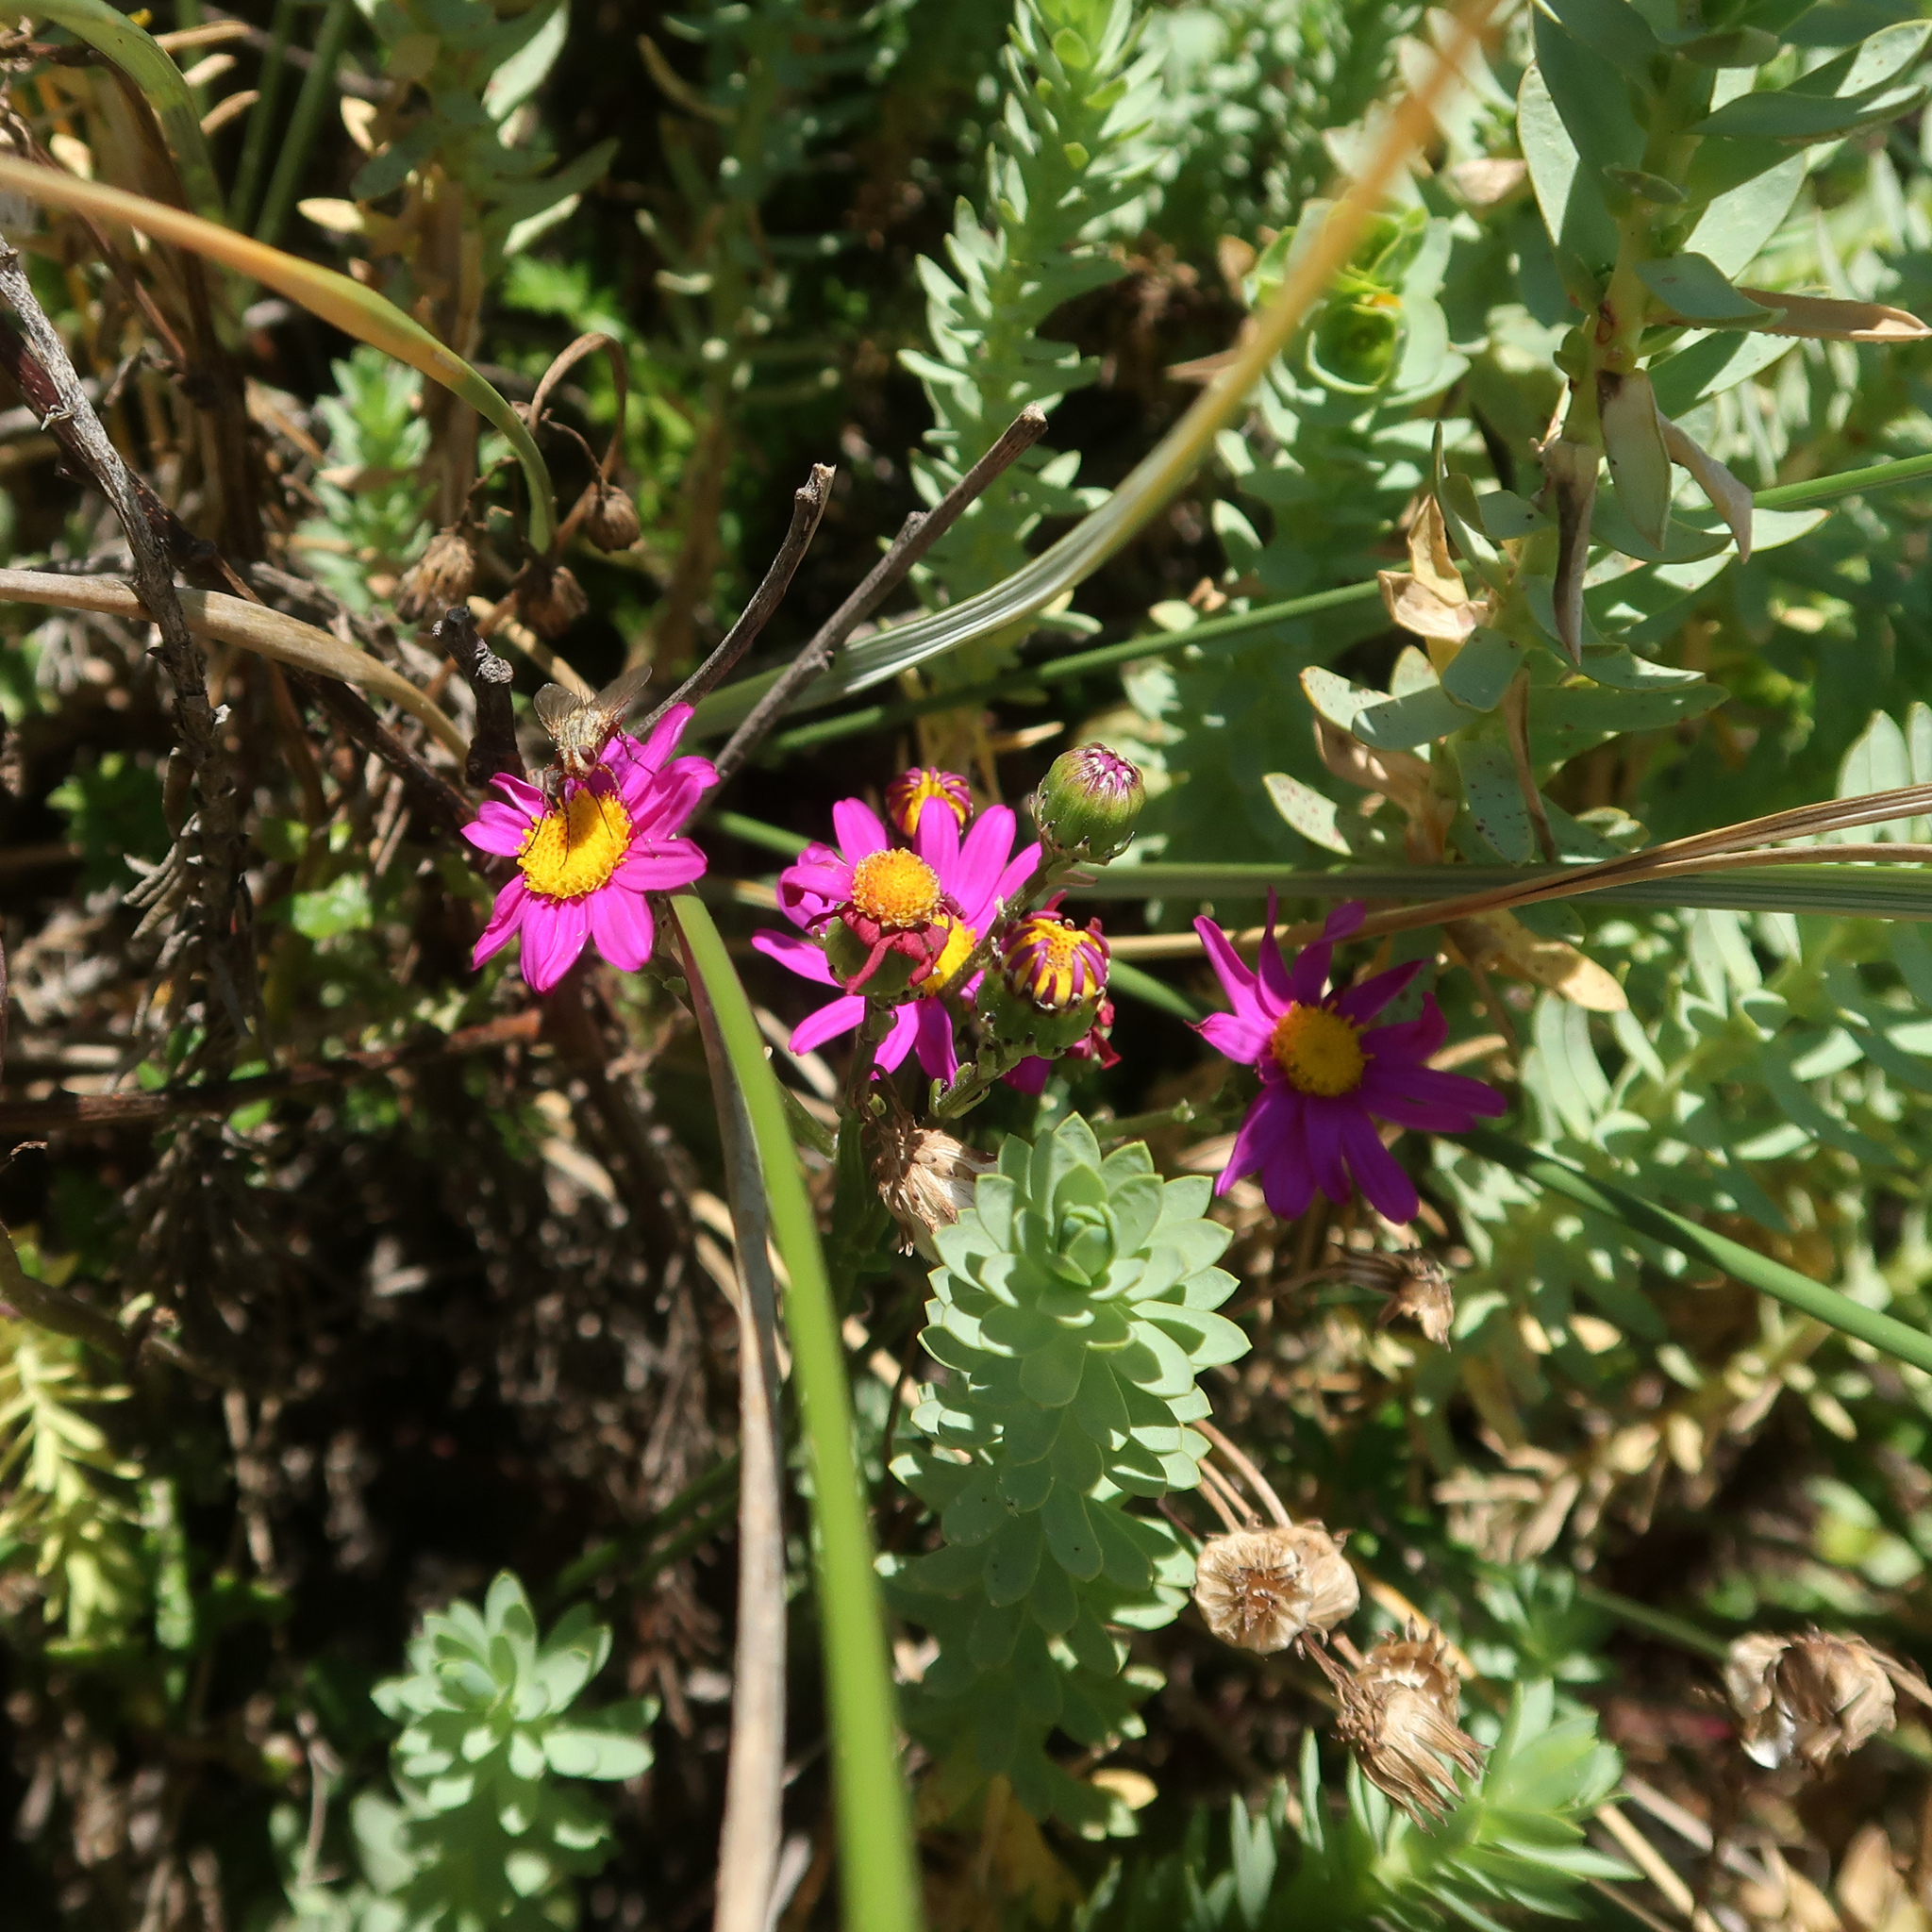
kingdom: Plantae
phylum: Tracheophyta
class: Magnoliopsida
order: Asterales
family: Asteraceae
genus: Senecio
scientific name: Senecio elegans
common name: Purple groundsel
